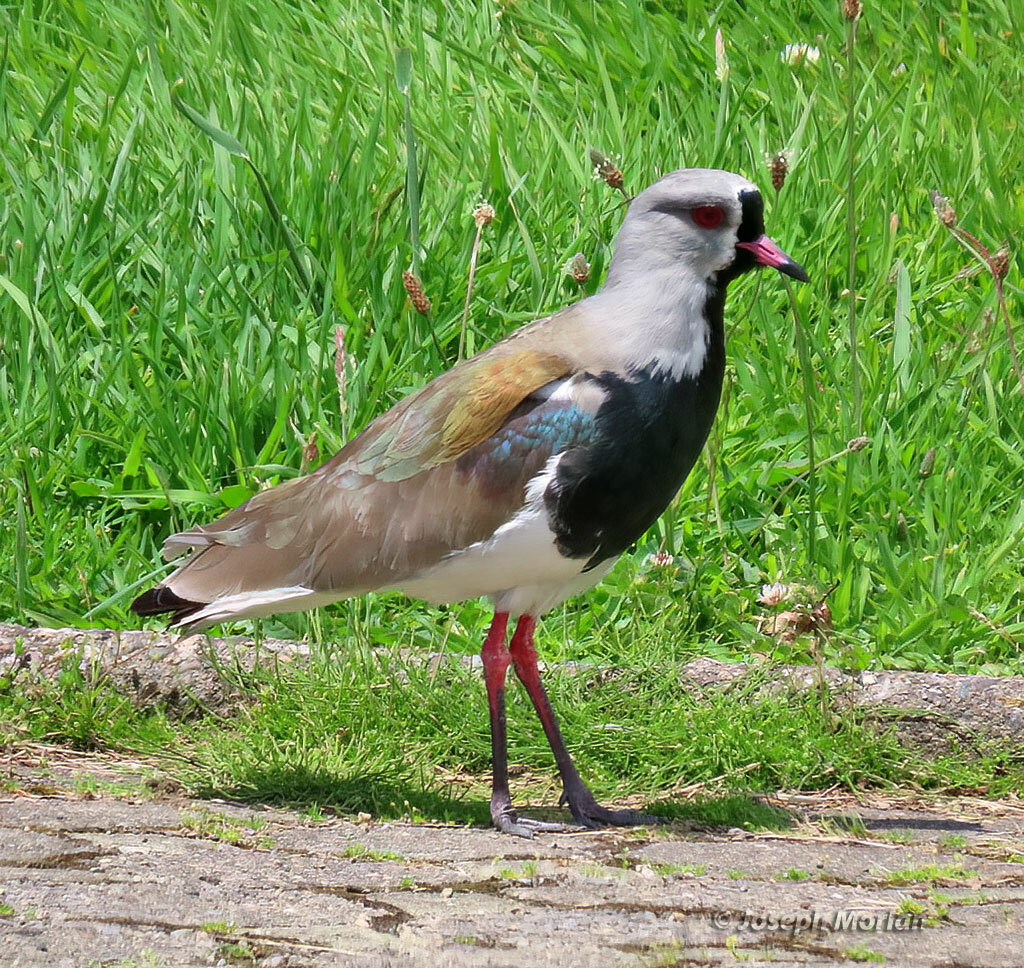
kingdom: Animalia
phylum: Chordata
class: Aves
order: Charadriiformes
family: Charadriidae
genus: Vanellus
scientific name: Vanellus chilensis
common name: Southern lapwing
